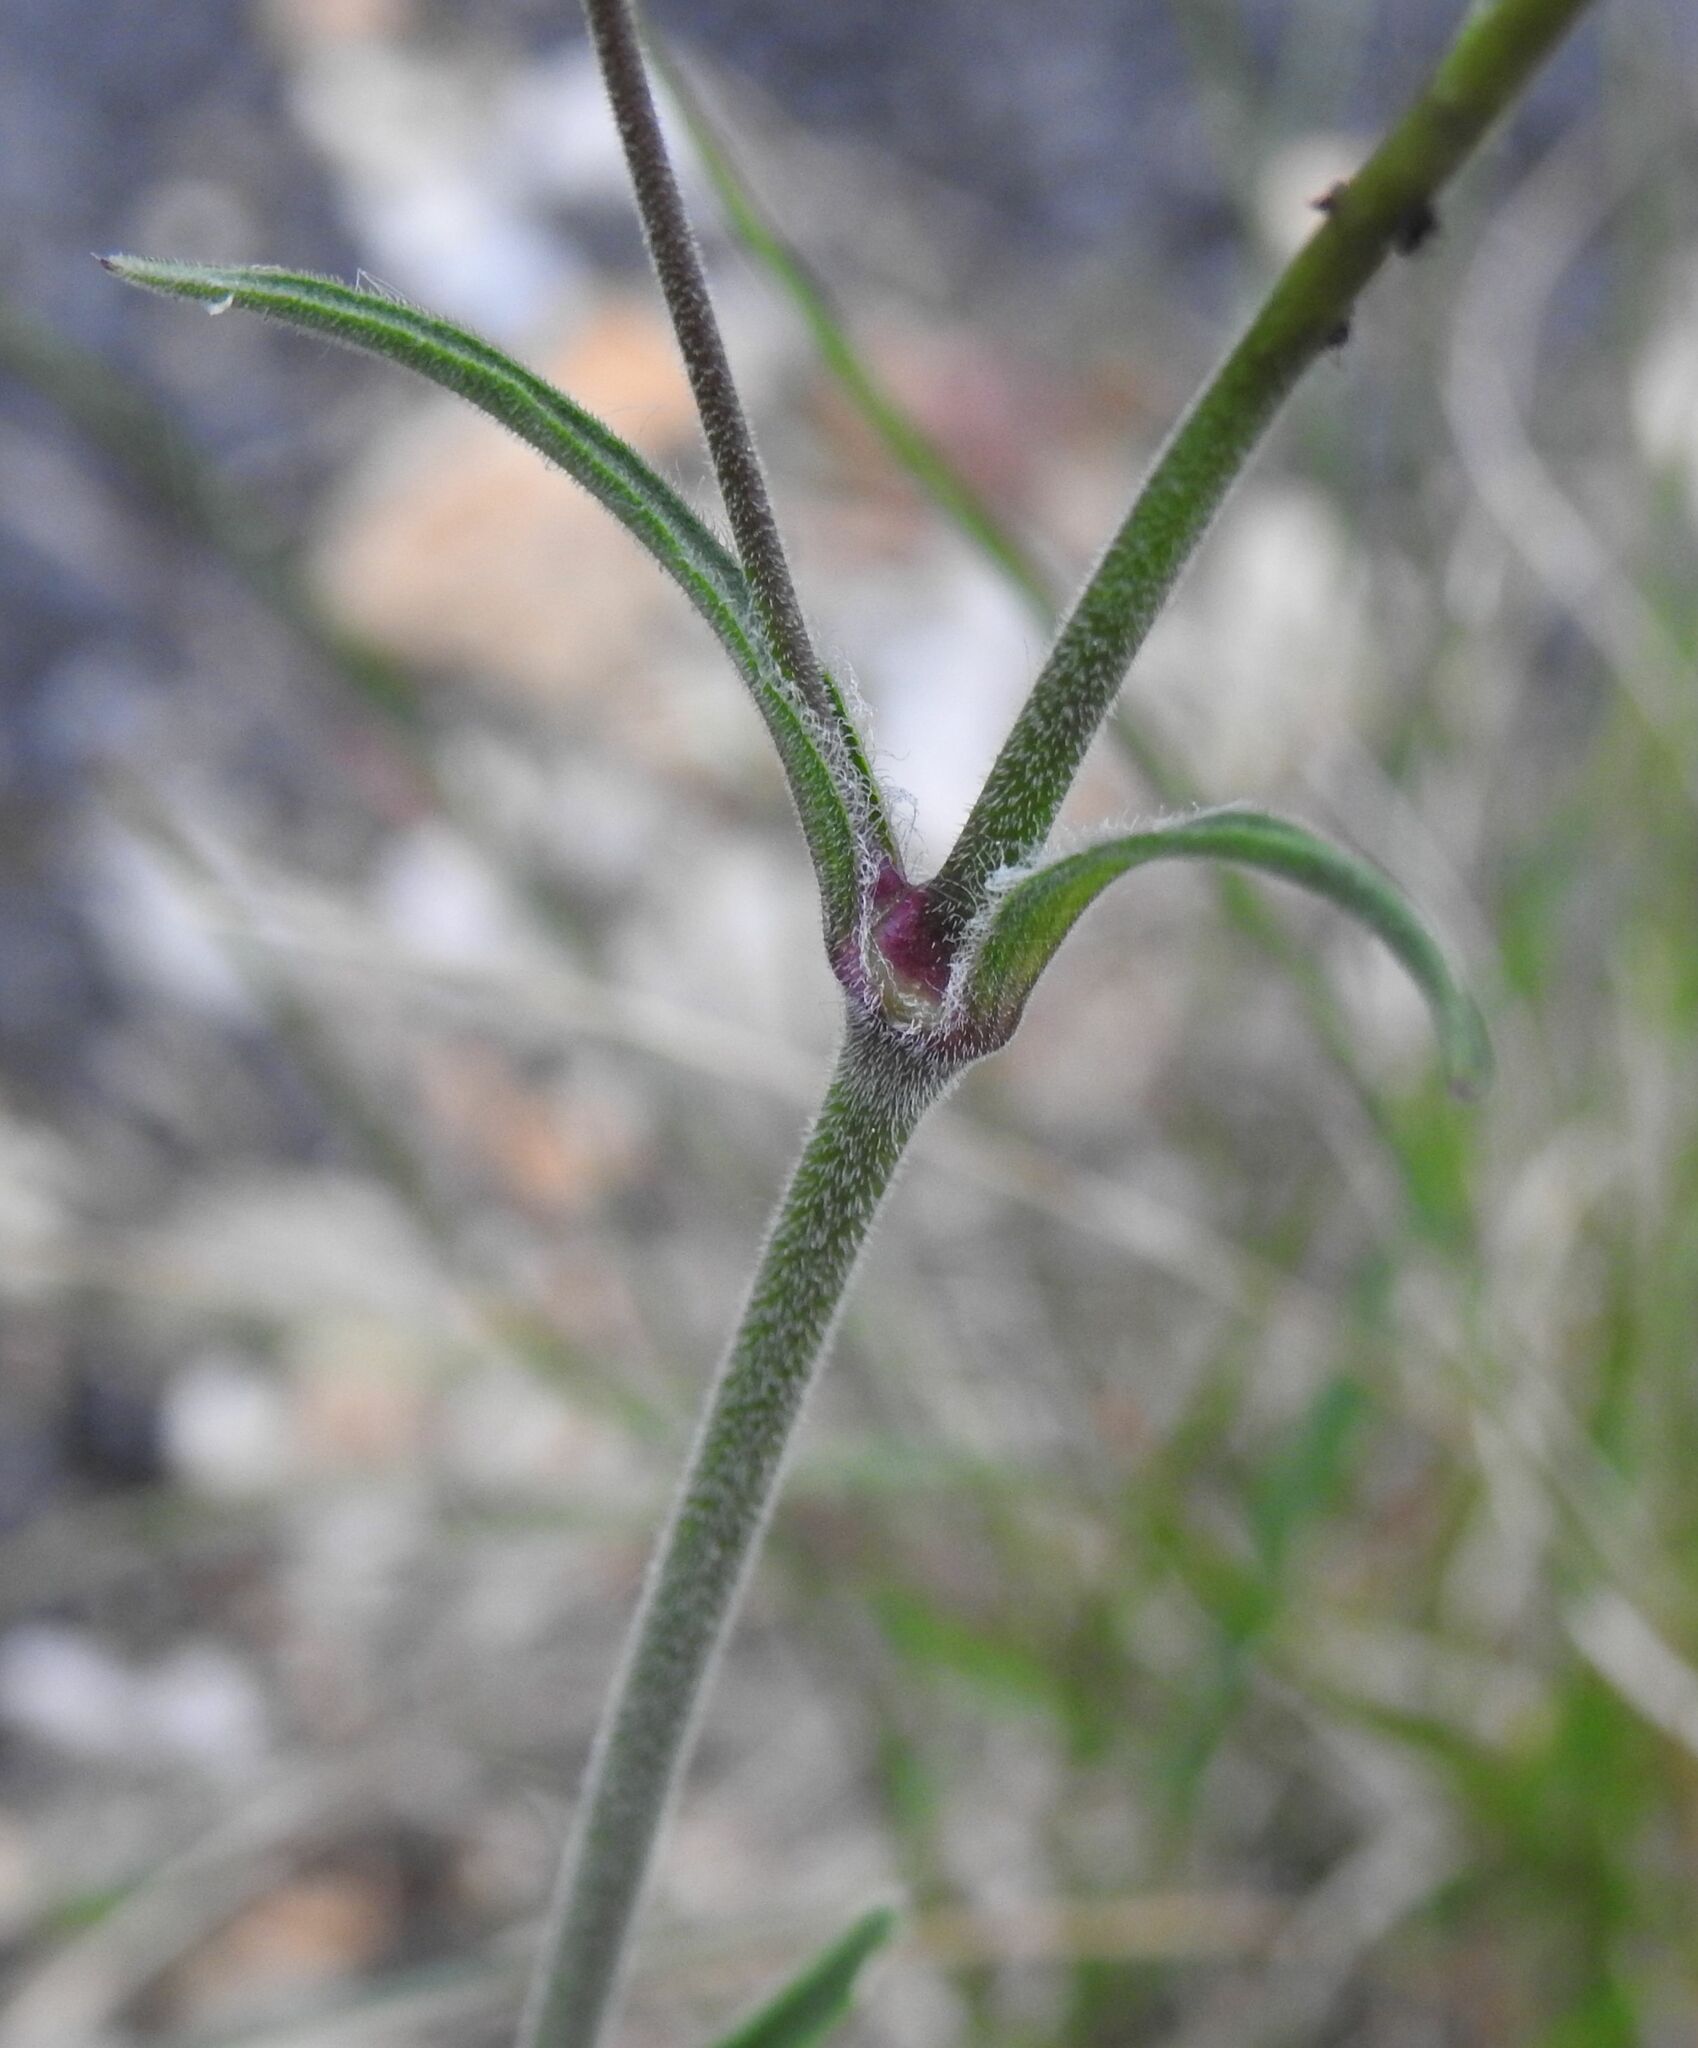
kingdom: Plantae
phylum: Tracheophyta
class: Magnoliopsida
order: Caryophyllales
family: Caryophyllaceae
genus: Silene
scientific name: Silene italica
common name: Italian catchfly
